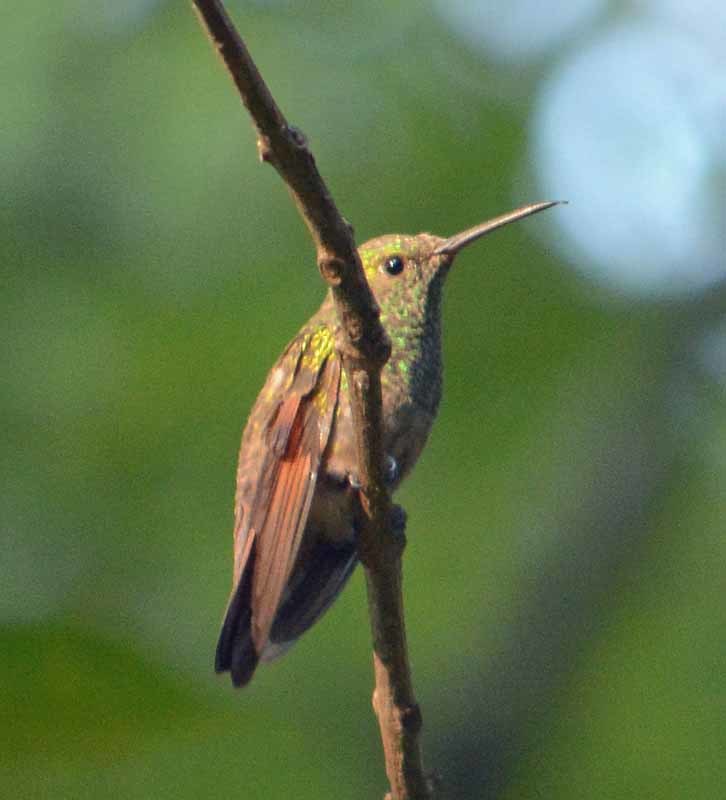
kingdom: Animalia
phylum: Chordata
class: Aves
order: Apodiformes
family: Trochilidae
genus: Saucerottia
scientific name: Saucerottia beryllina
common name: Berylline hummingbird
